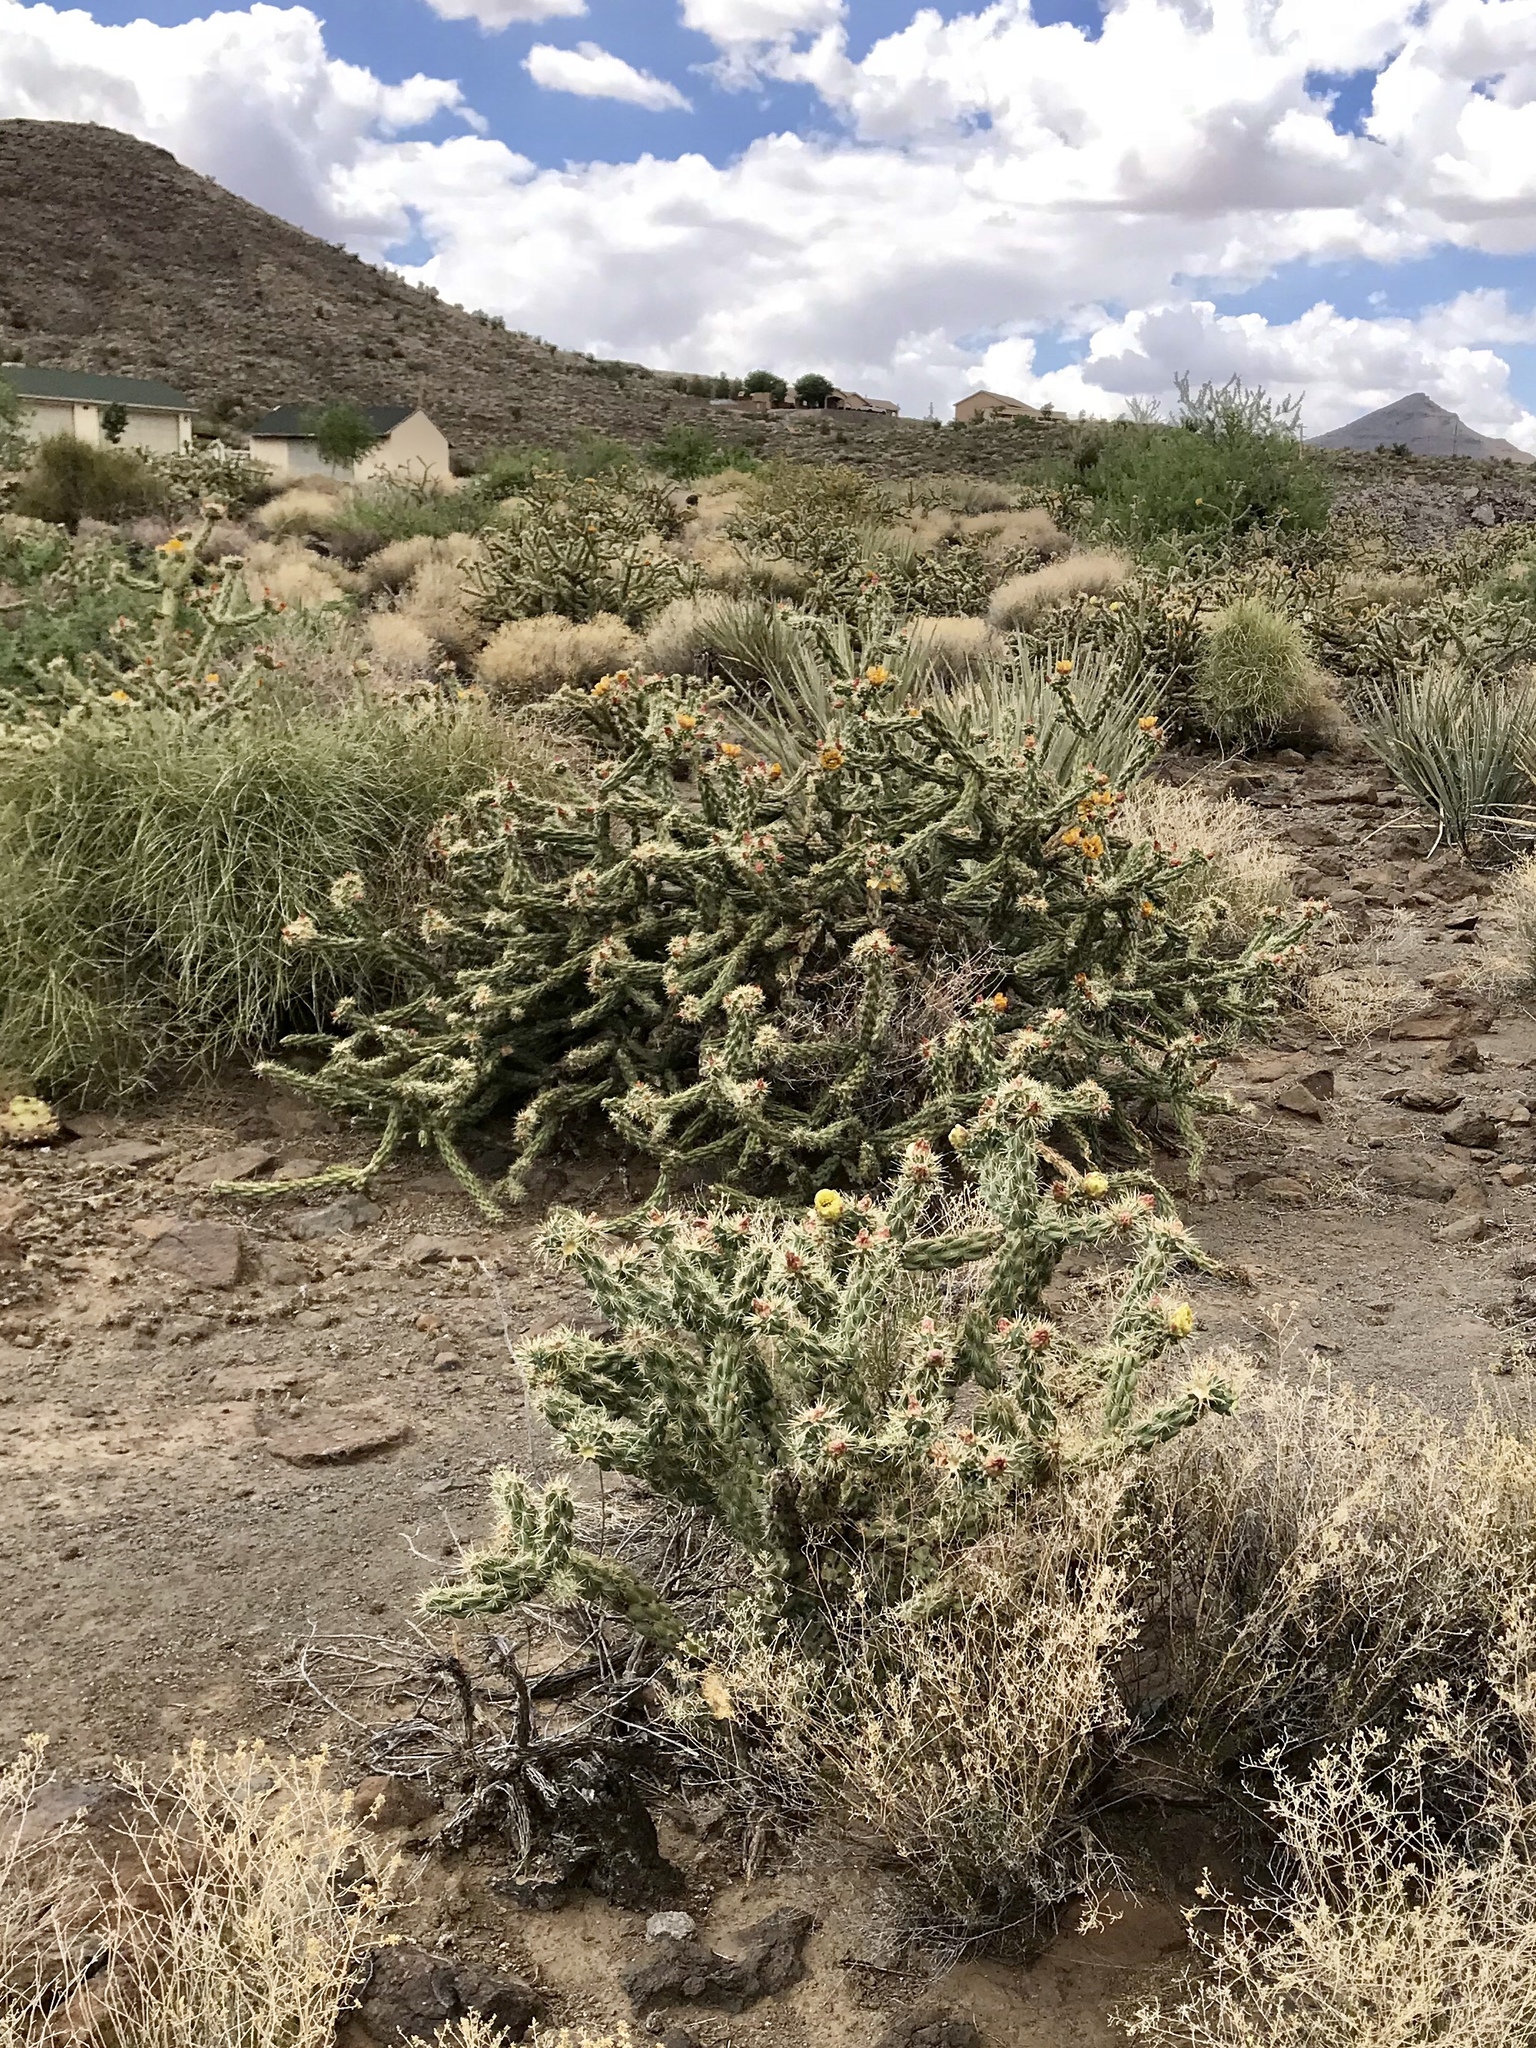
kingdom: Plantae
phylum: Tracheophyta
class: Magnoliopsida
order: Caryophyllales
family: Cactaceae
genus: Cylindropuntia
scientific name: Cylindropuntia acanthocarpa
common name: Buckhorn cholla
